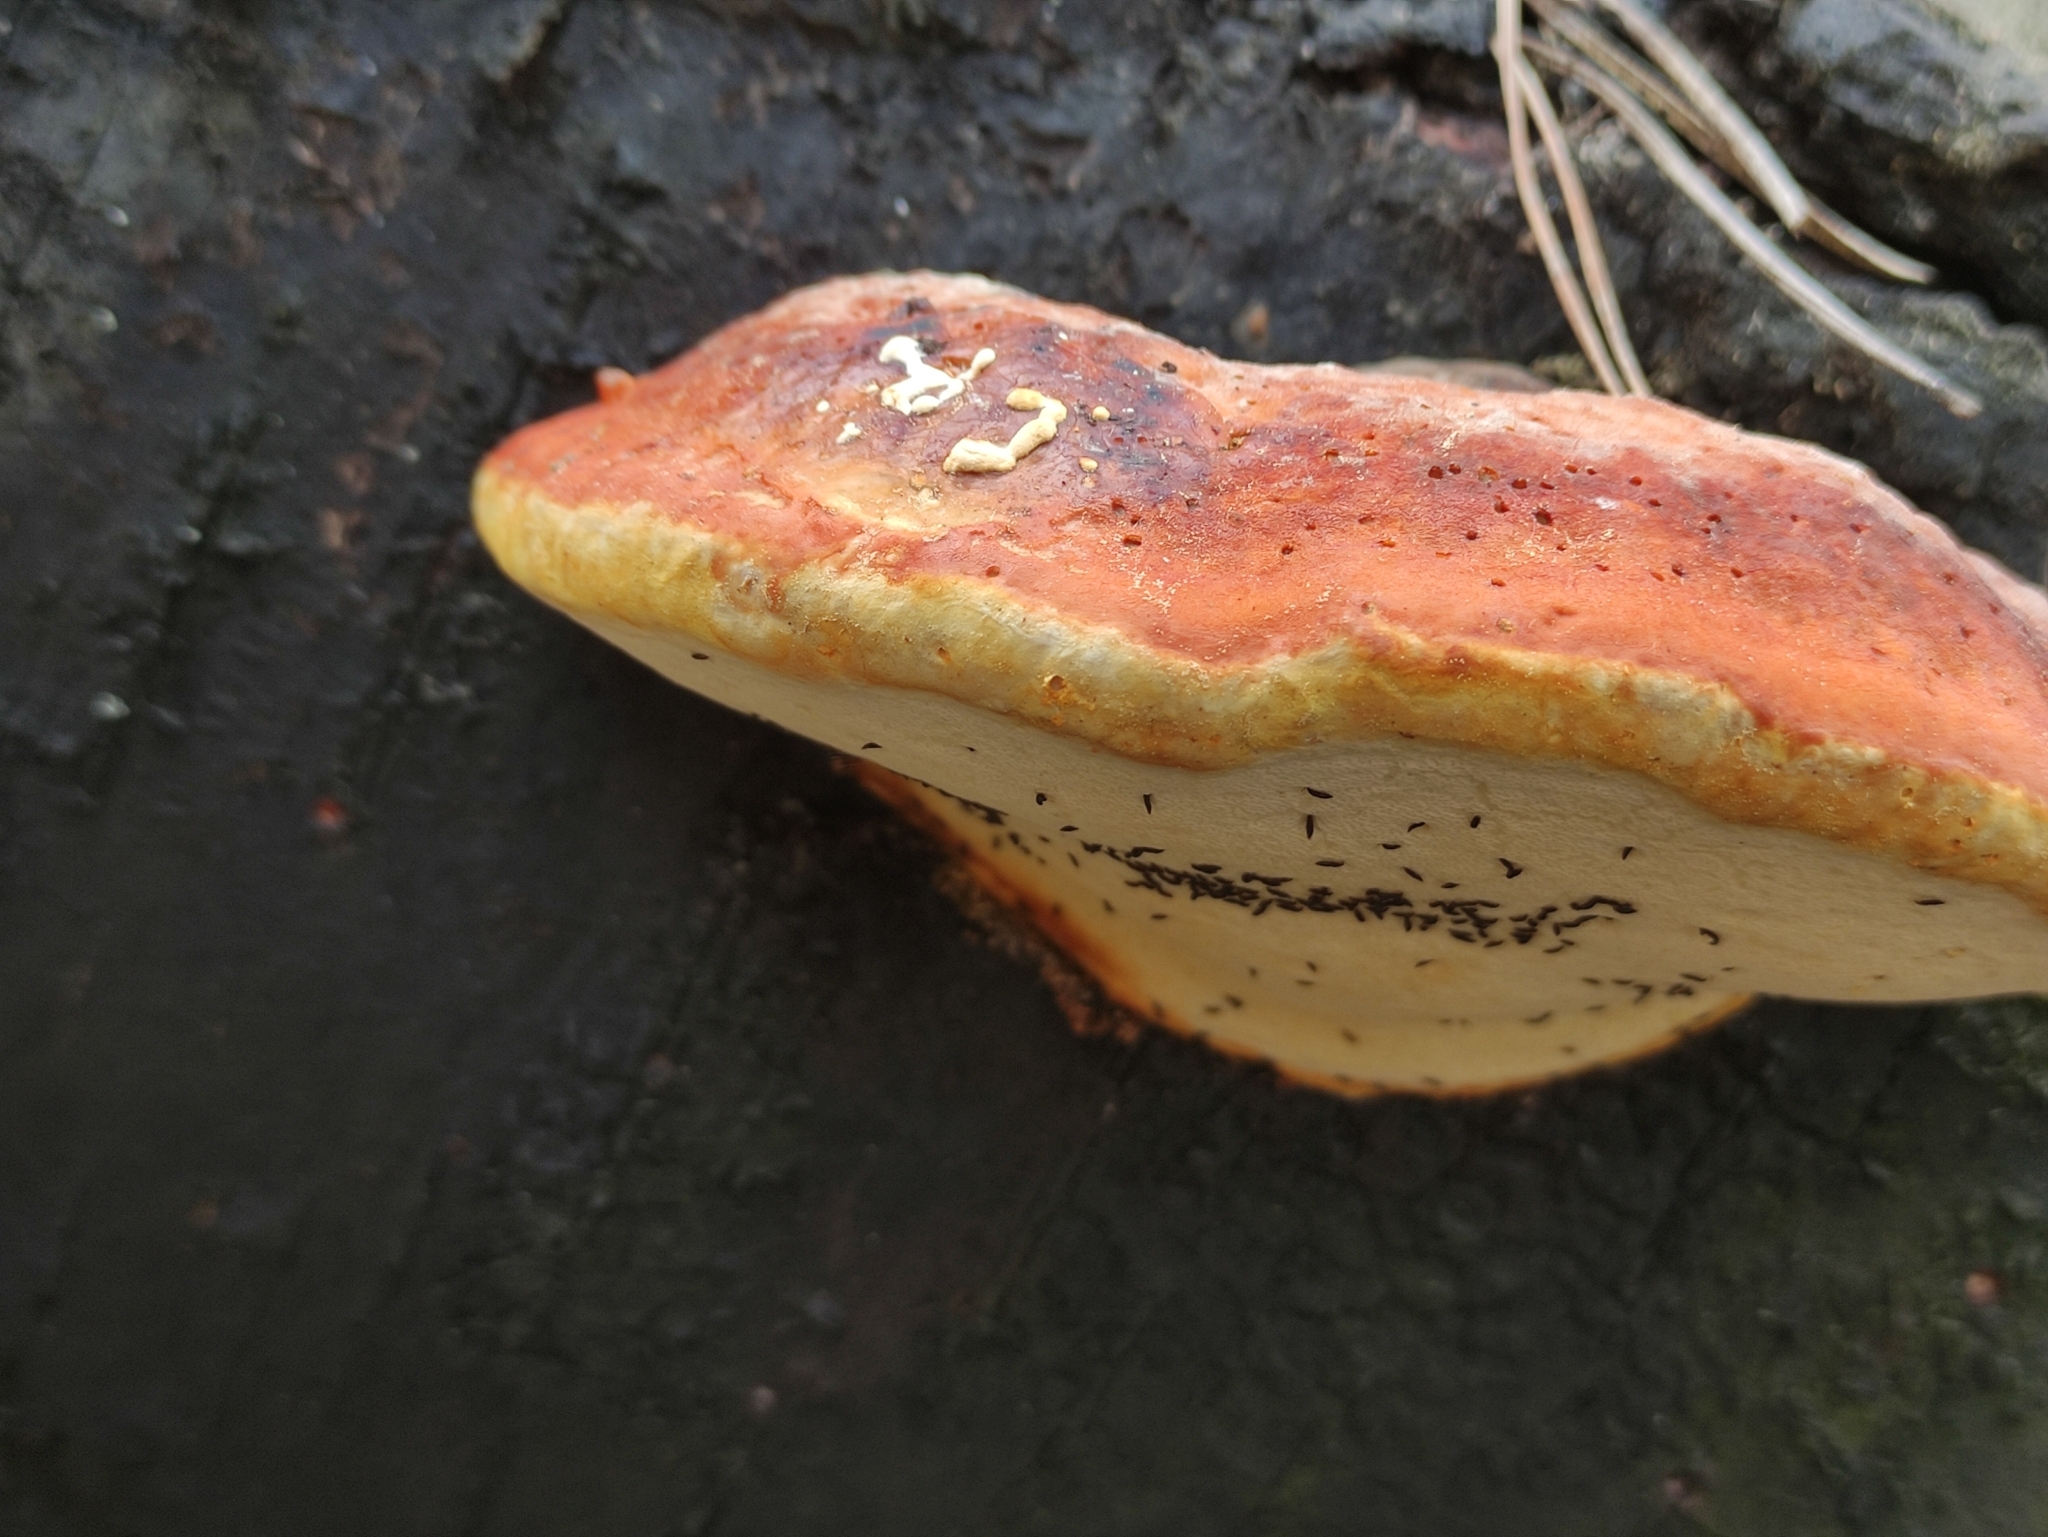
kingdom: Fungi
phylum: Basidiomycota
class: Agaricomycetes
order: Polyporales
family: Fomitopsidaceae
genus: Fomitopsis
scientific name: Fomitopsis pinicola
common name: Red-belted bracket
